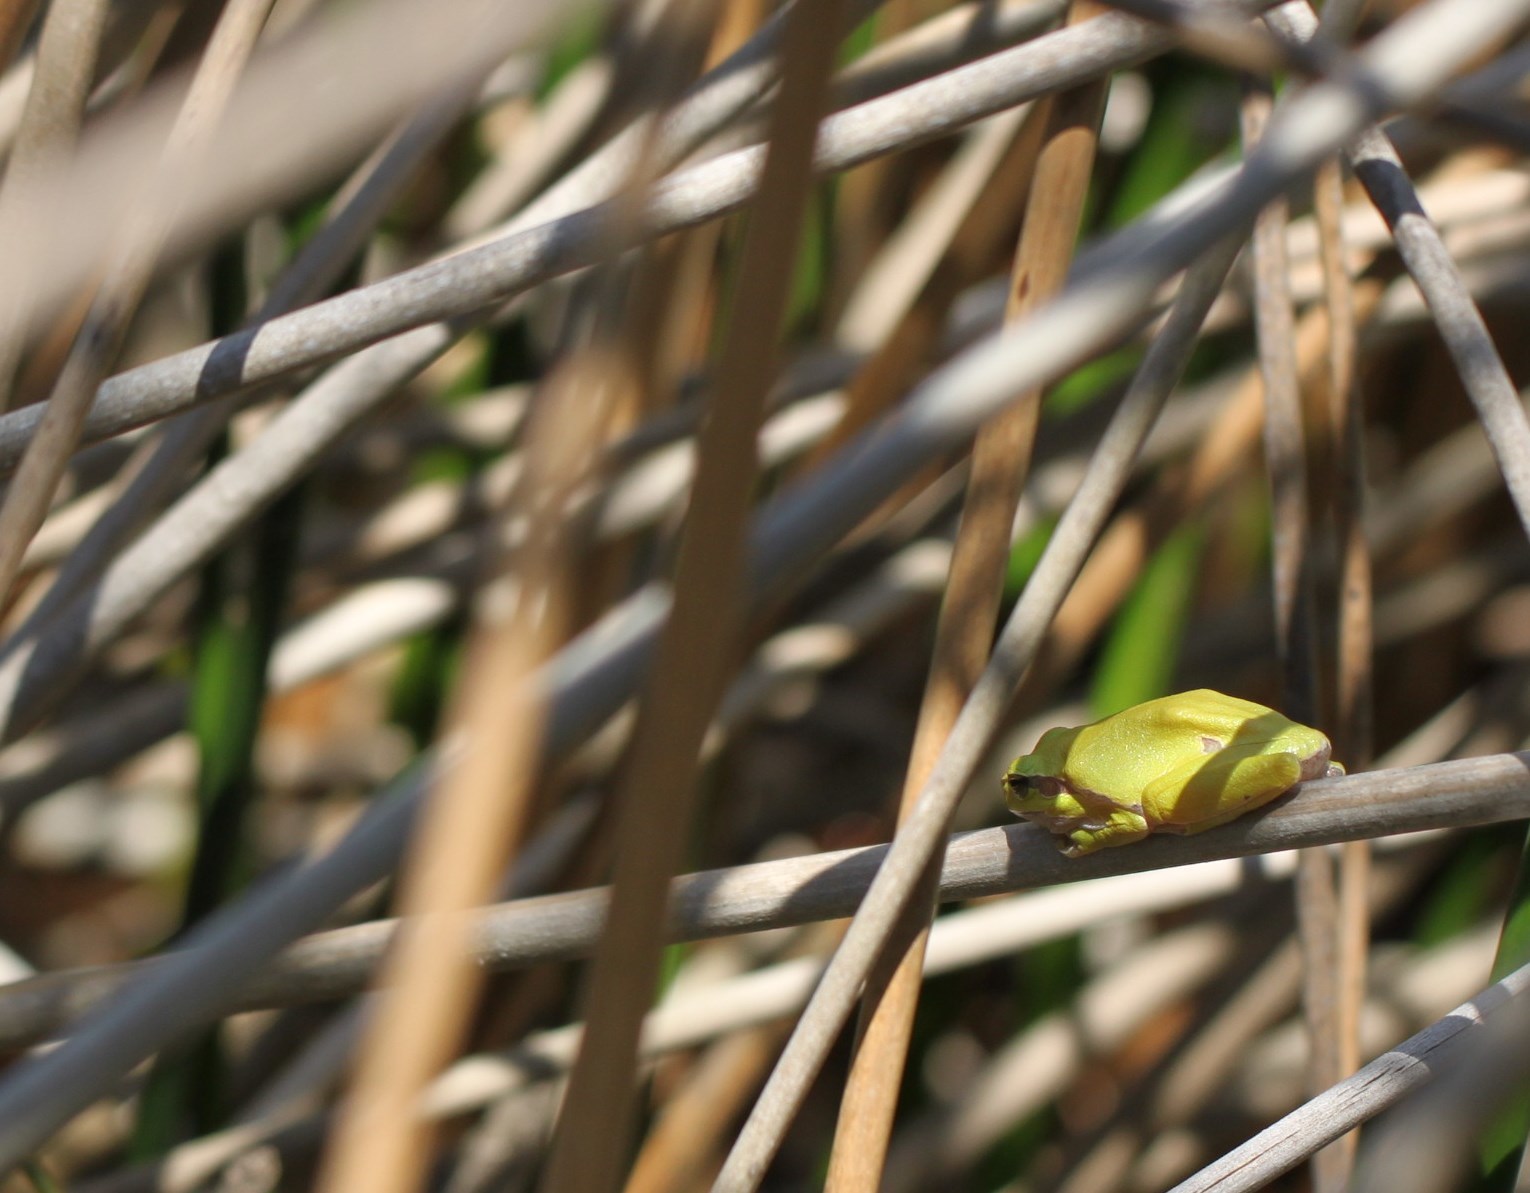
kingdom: Animalia
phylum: Chordata
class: Amphibia
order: Anura
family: Hylidae
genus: Hyla
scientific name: Hyla arborea
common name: Common tree frog
